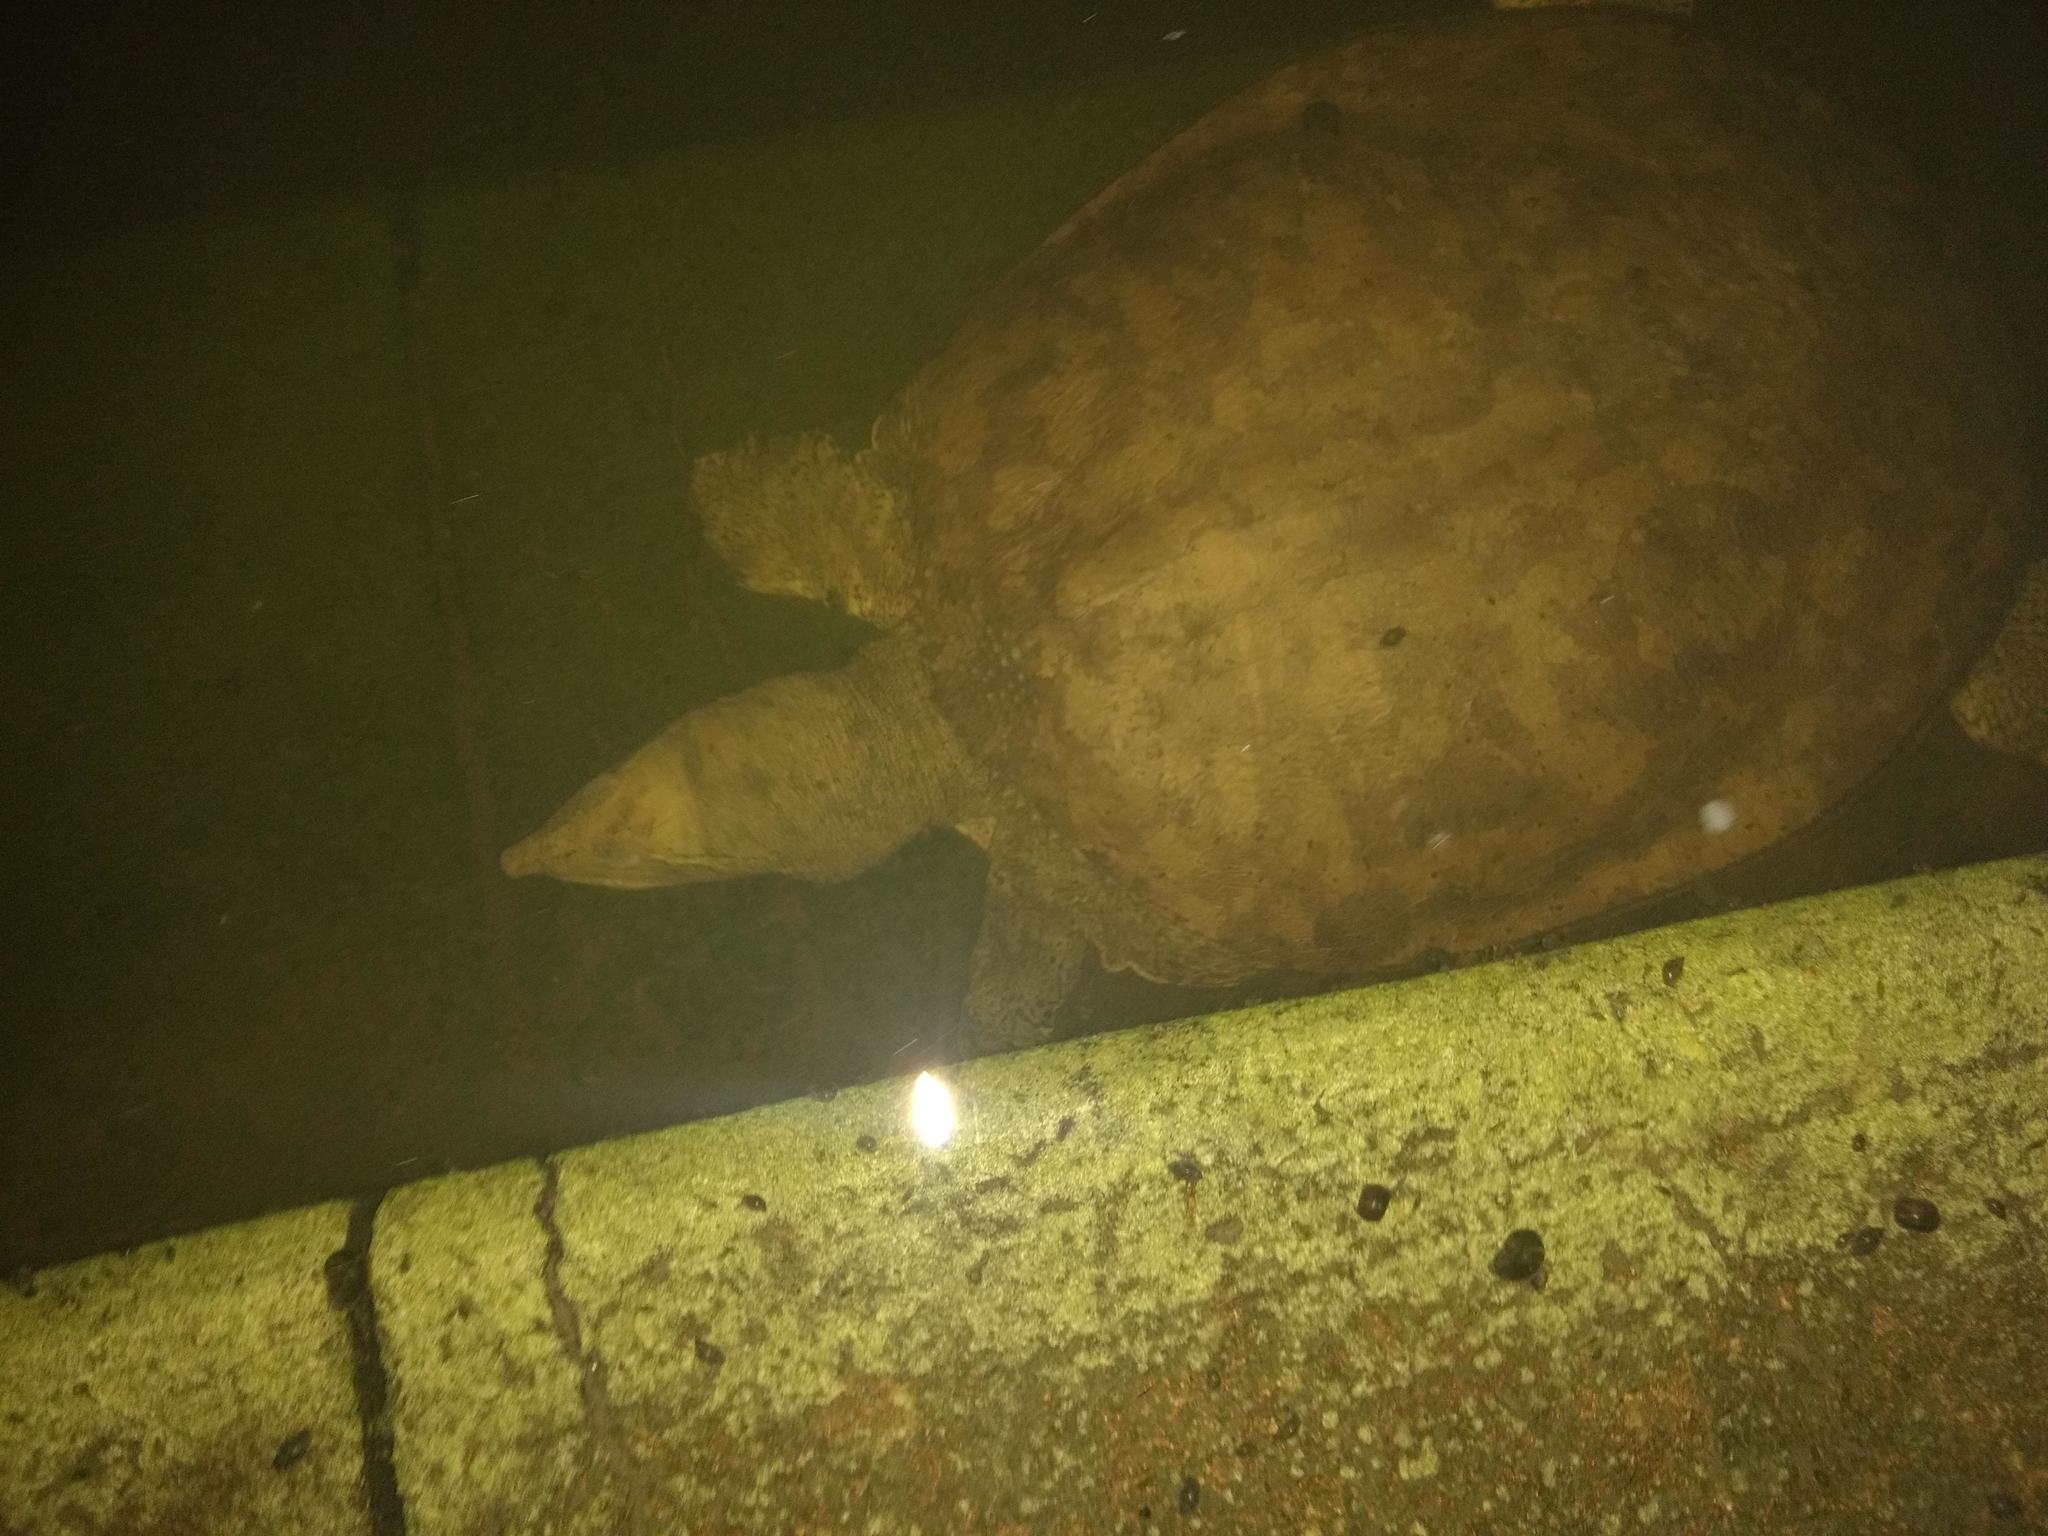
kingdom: Animalia
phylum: Chordata
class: Testudines
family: Trionychidae
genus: Apalone
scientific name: Apalone spinifera
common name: Spiny softshell turtle
